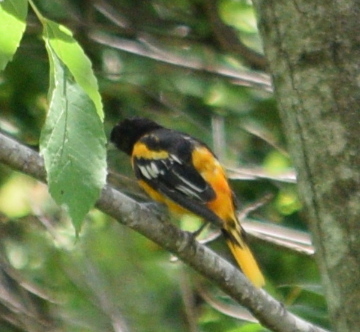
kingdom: Animalia
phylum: Chordata
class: Aves
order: Passeriformes
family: Icteridae
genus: Icterus
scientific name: Icterus galbula
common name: Baltimore oriole
